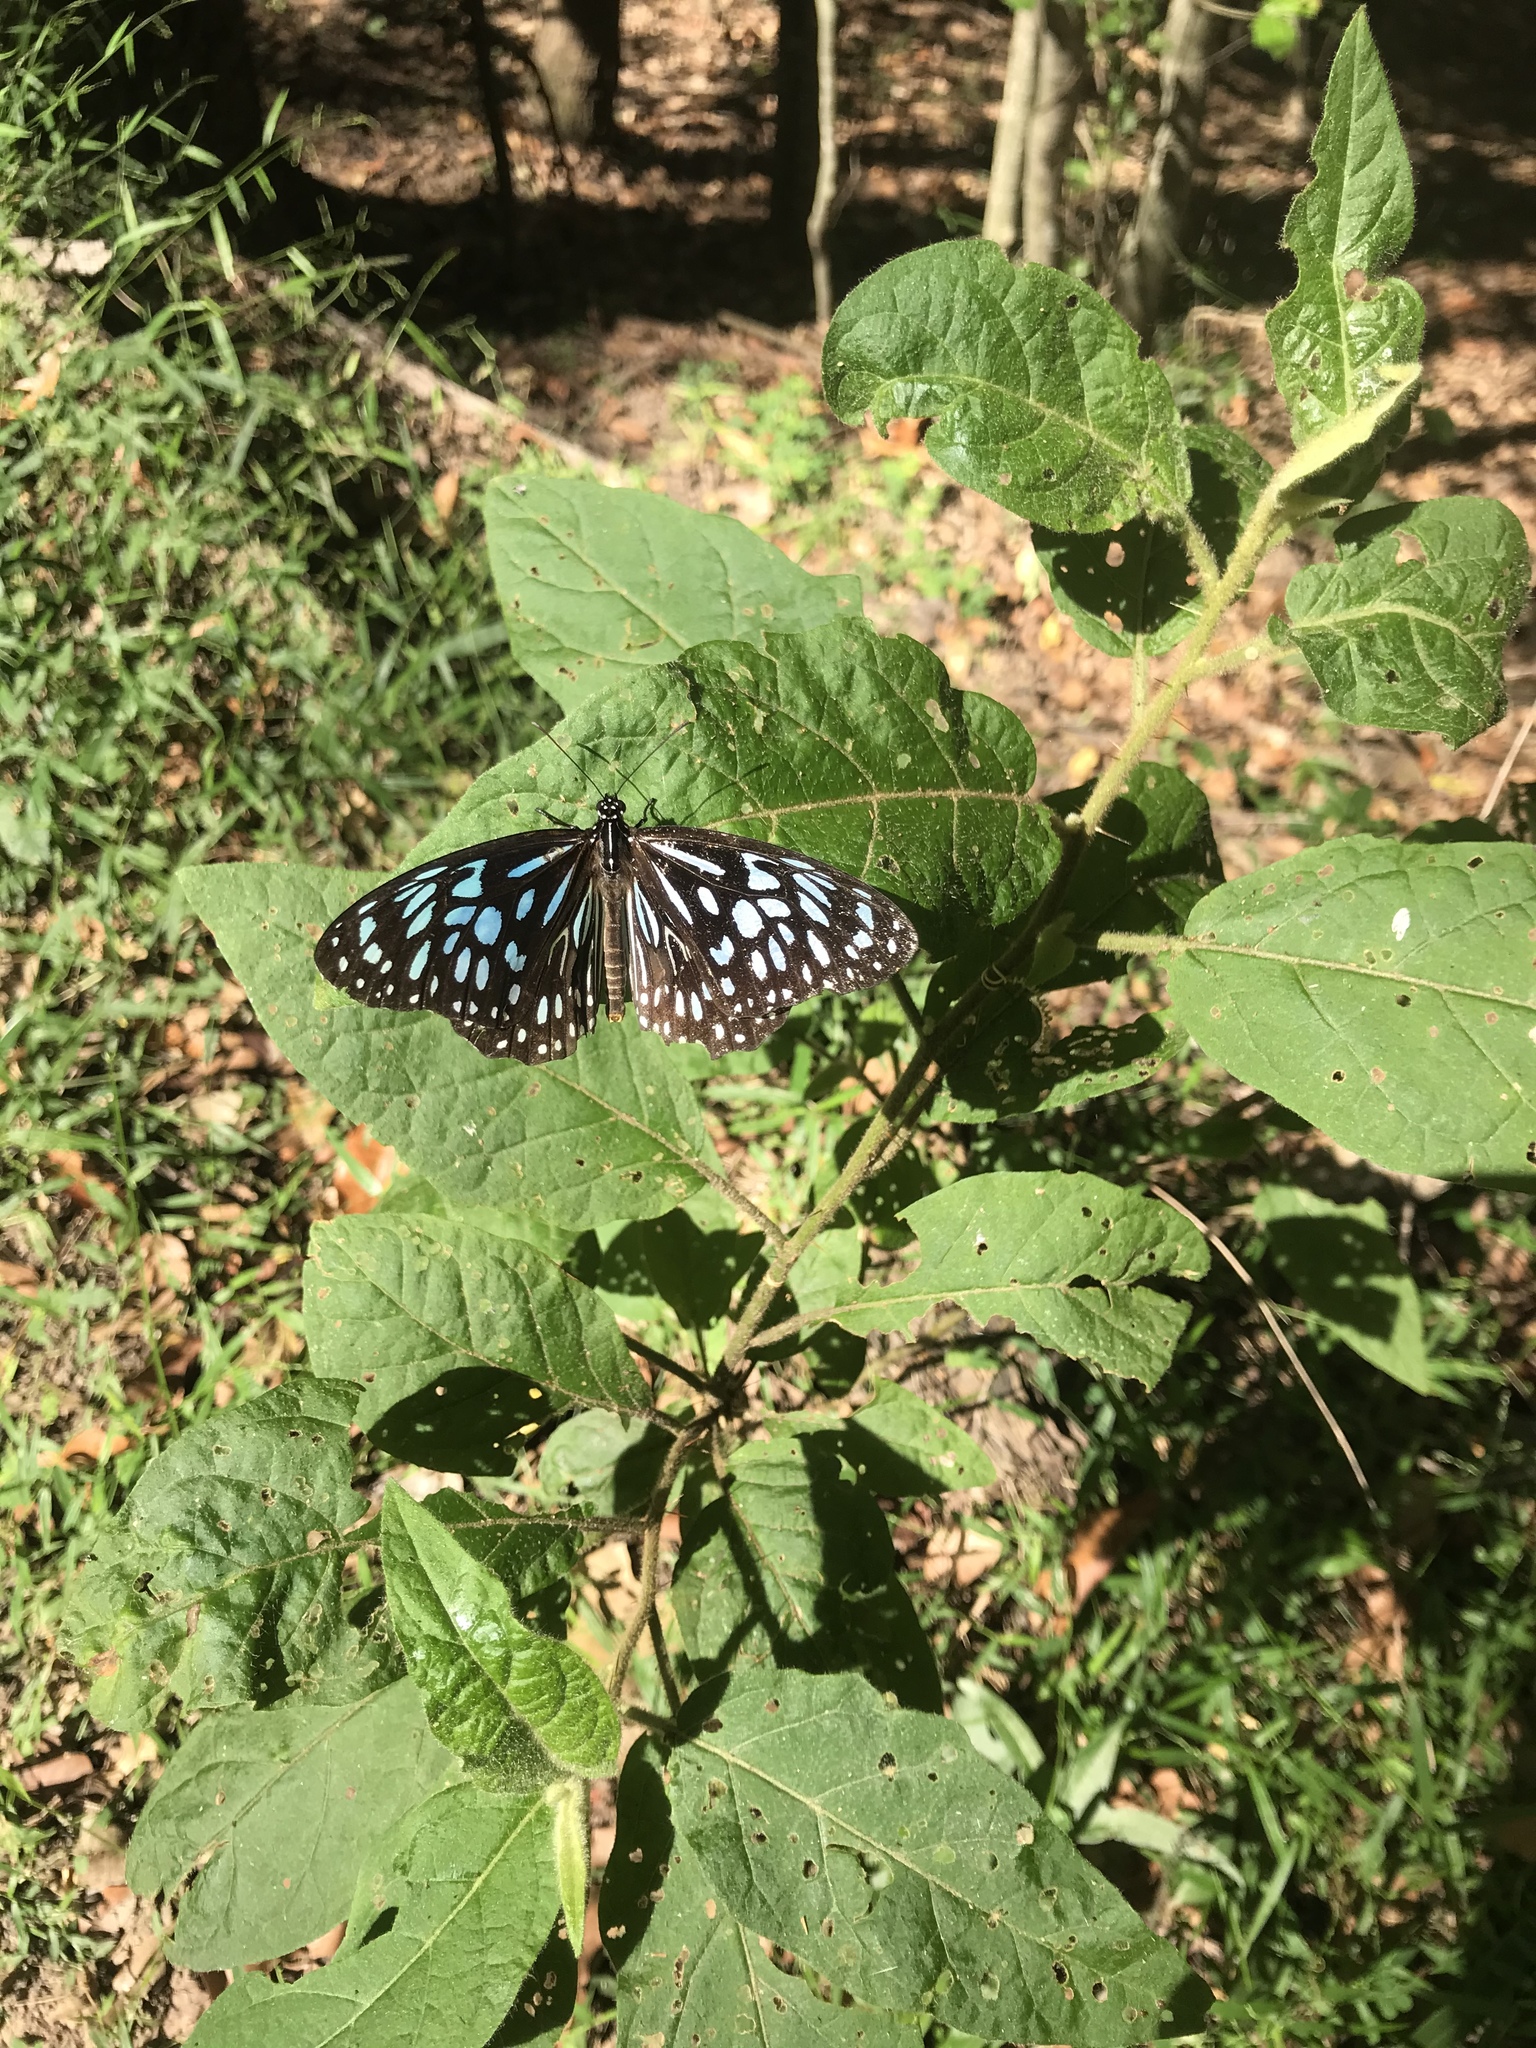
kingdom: Animalia
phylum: Arthropoda
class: Insecta
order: Lepidoptera
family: Nymphalidae
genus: Tirumala
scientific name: Tirumala hamata
